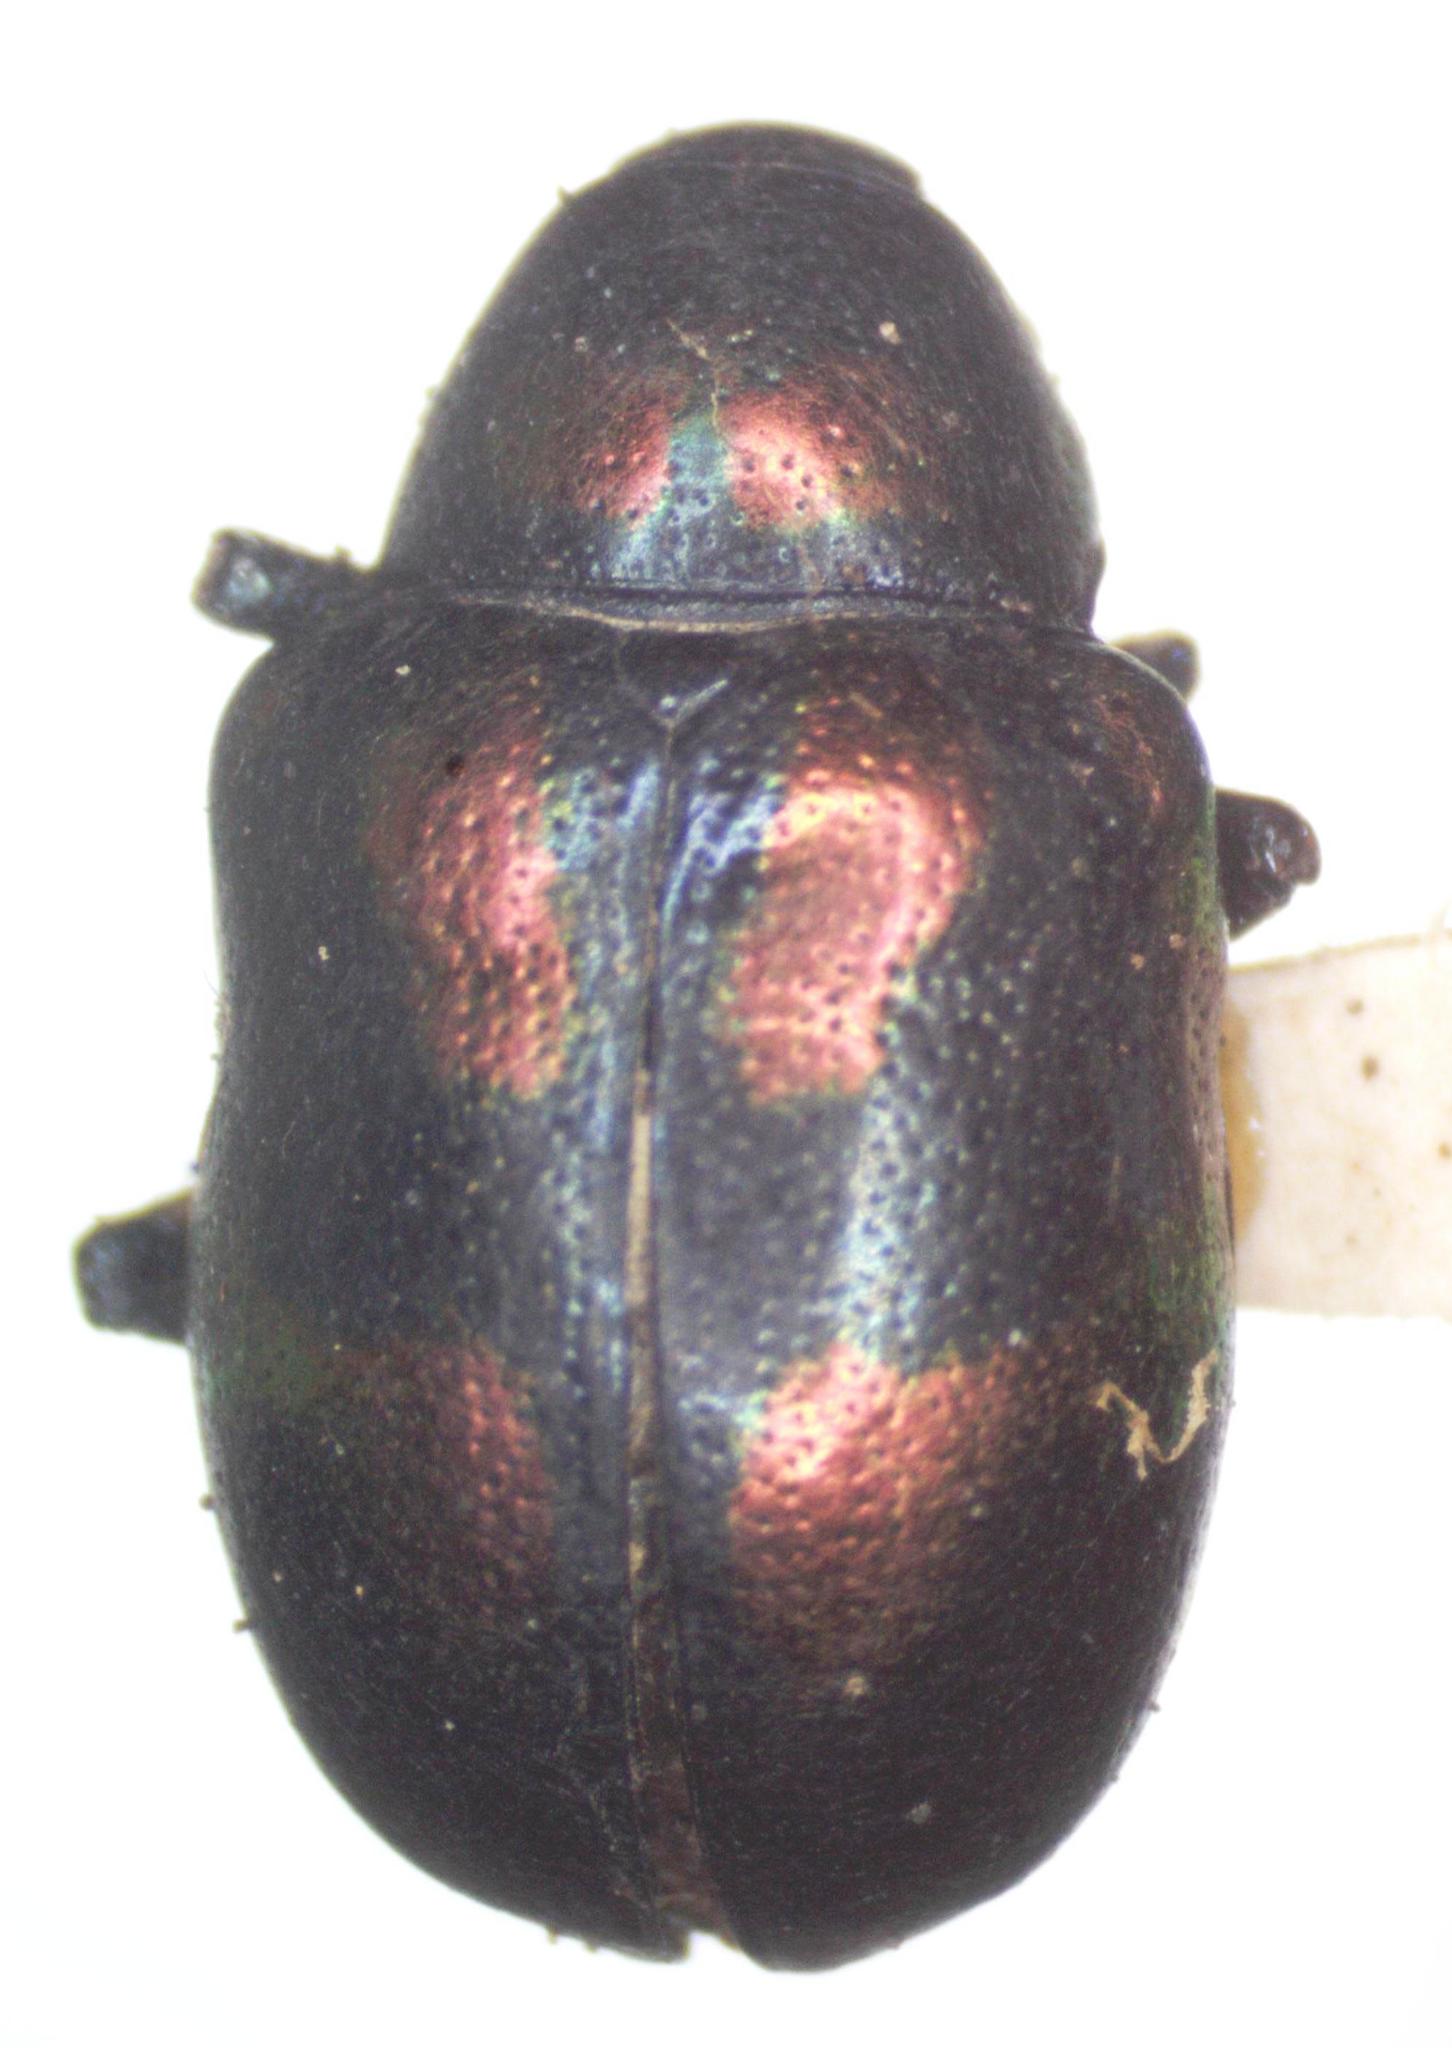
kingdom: Animalia
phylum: Arthropoda
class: Insecta
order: Coleoptera
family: Chrysomelidae
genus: Platycorynus
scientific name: Platycorynus
